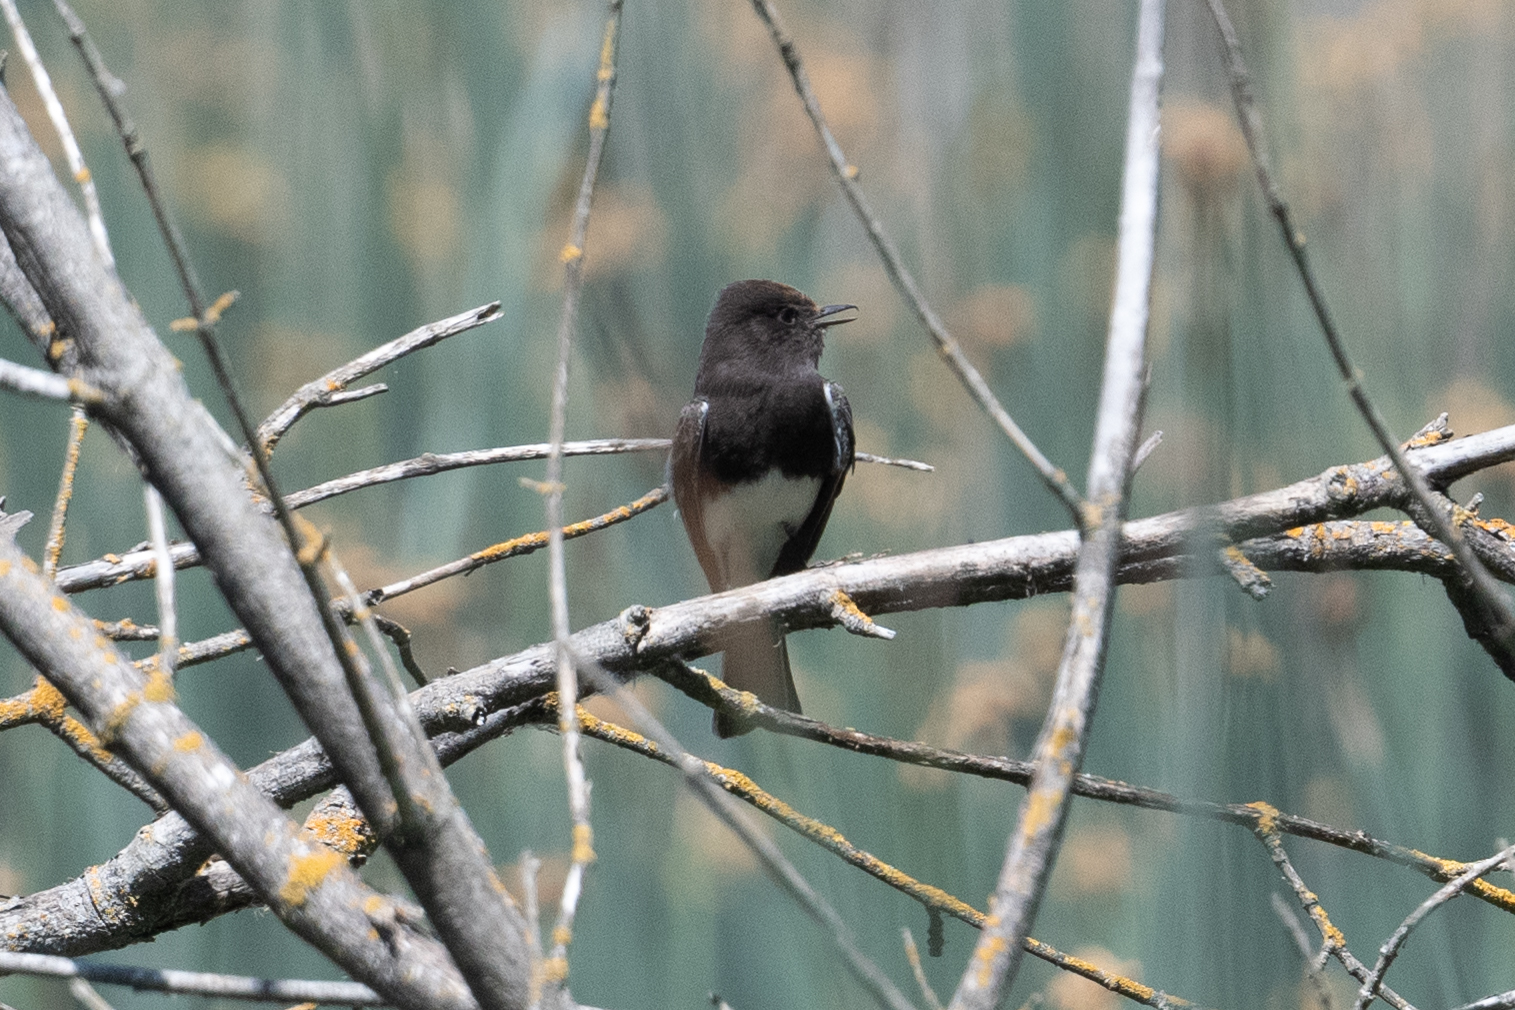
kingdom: Animalia
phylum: Chordata
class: Aves
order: Passeriformes
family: Tyrannidae
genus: Sayornis
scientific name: Sayornis nigricans
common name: Black phoebe
